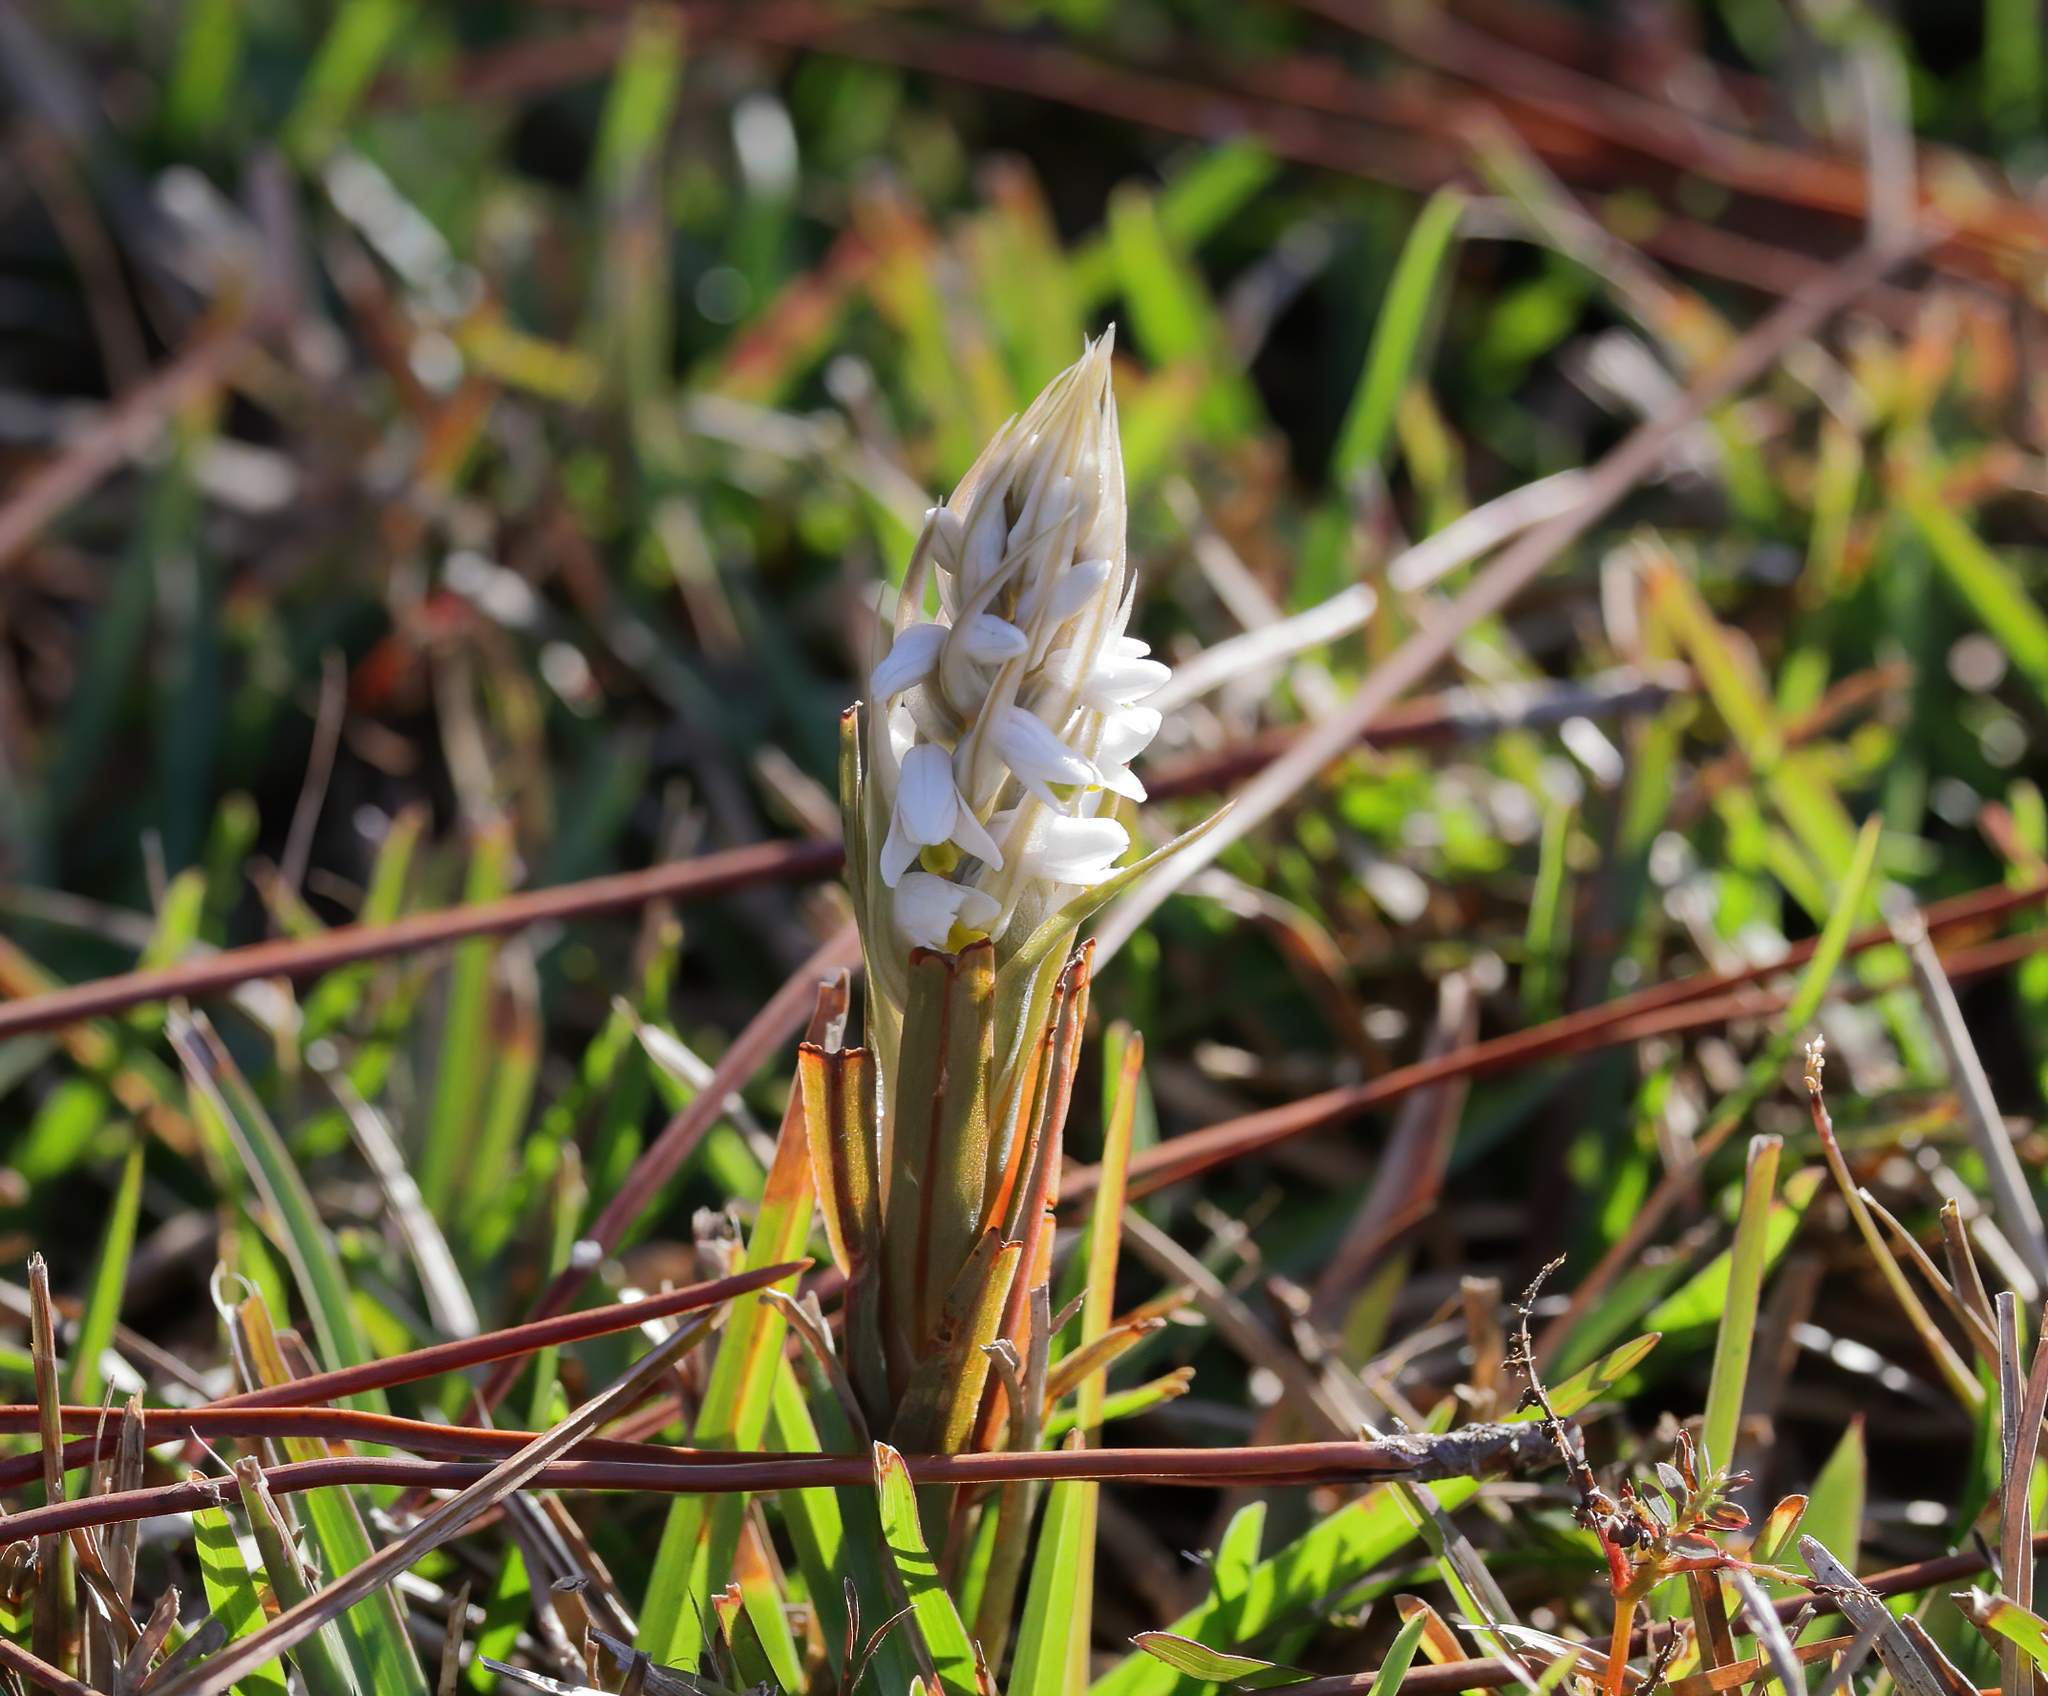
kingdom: Plantae
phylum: Tracheophyta
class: Liliopsida
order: Asparagales
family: Orchidaceae
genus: Zeuxine
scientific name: Zeuxine strateumatica
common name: Soldier's orchid
